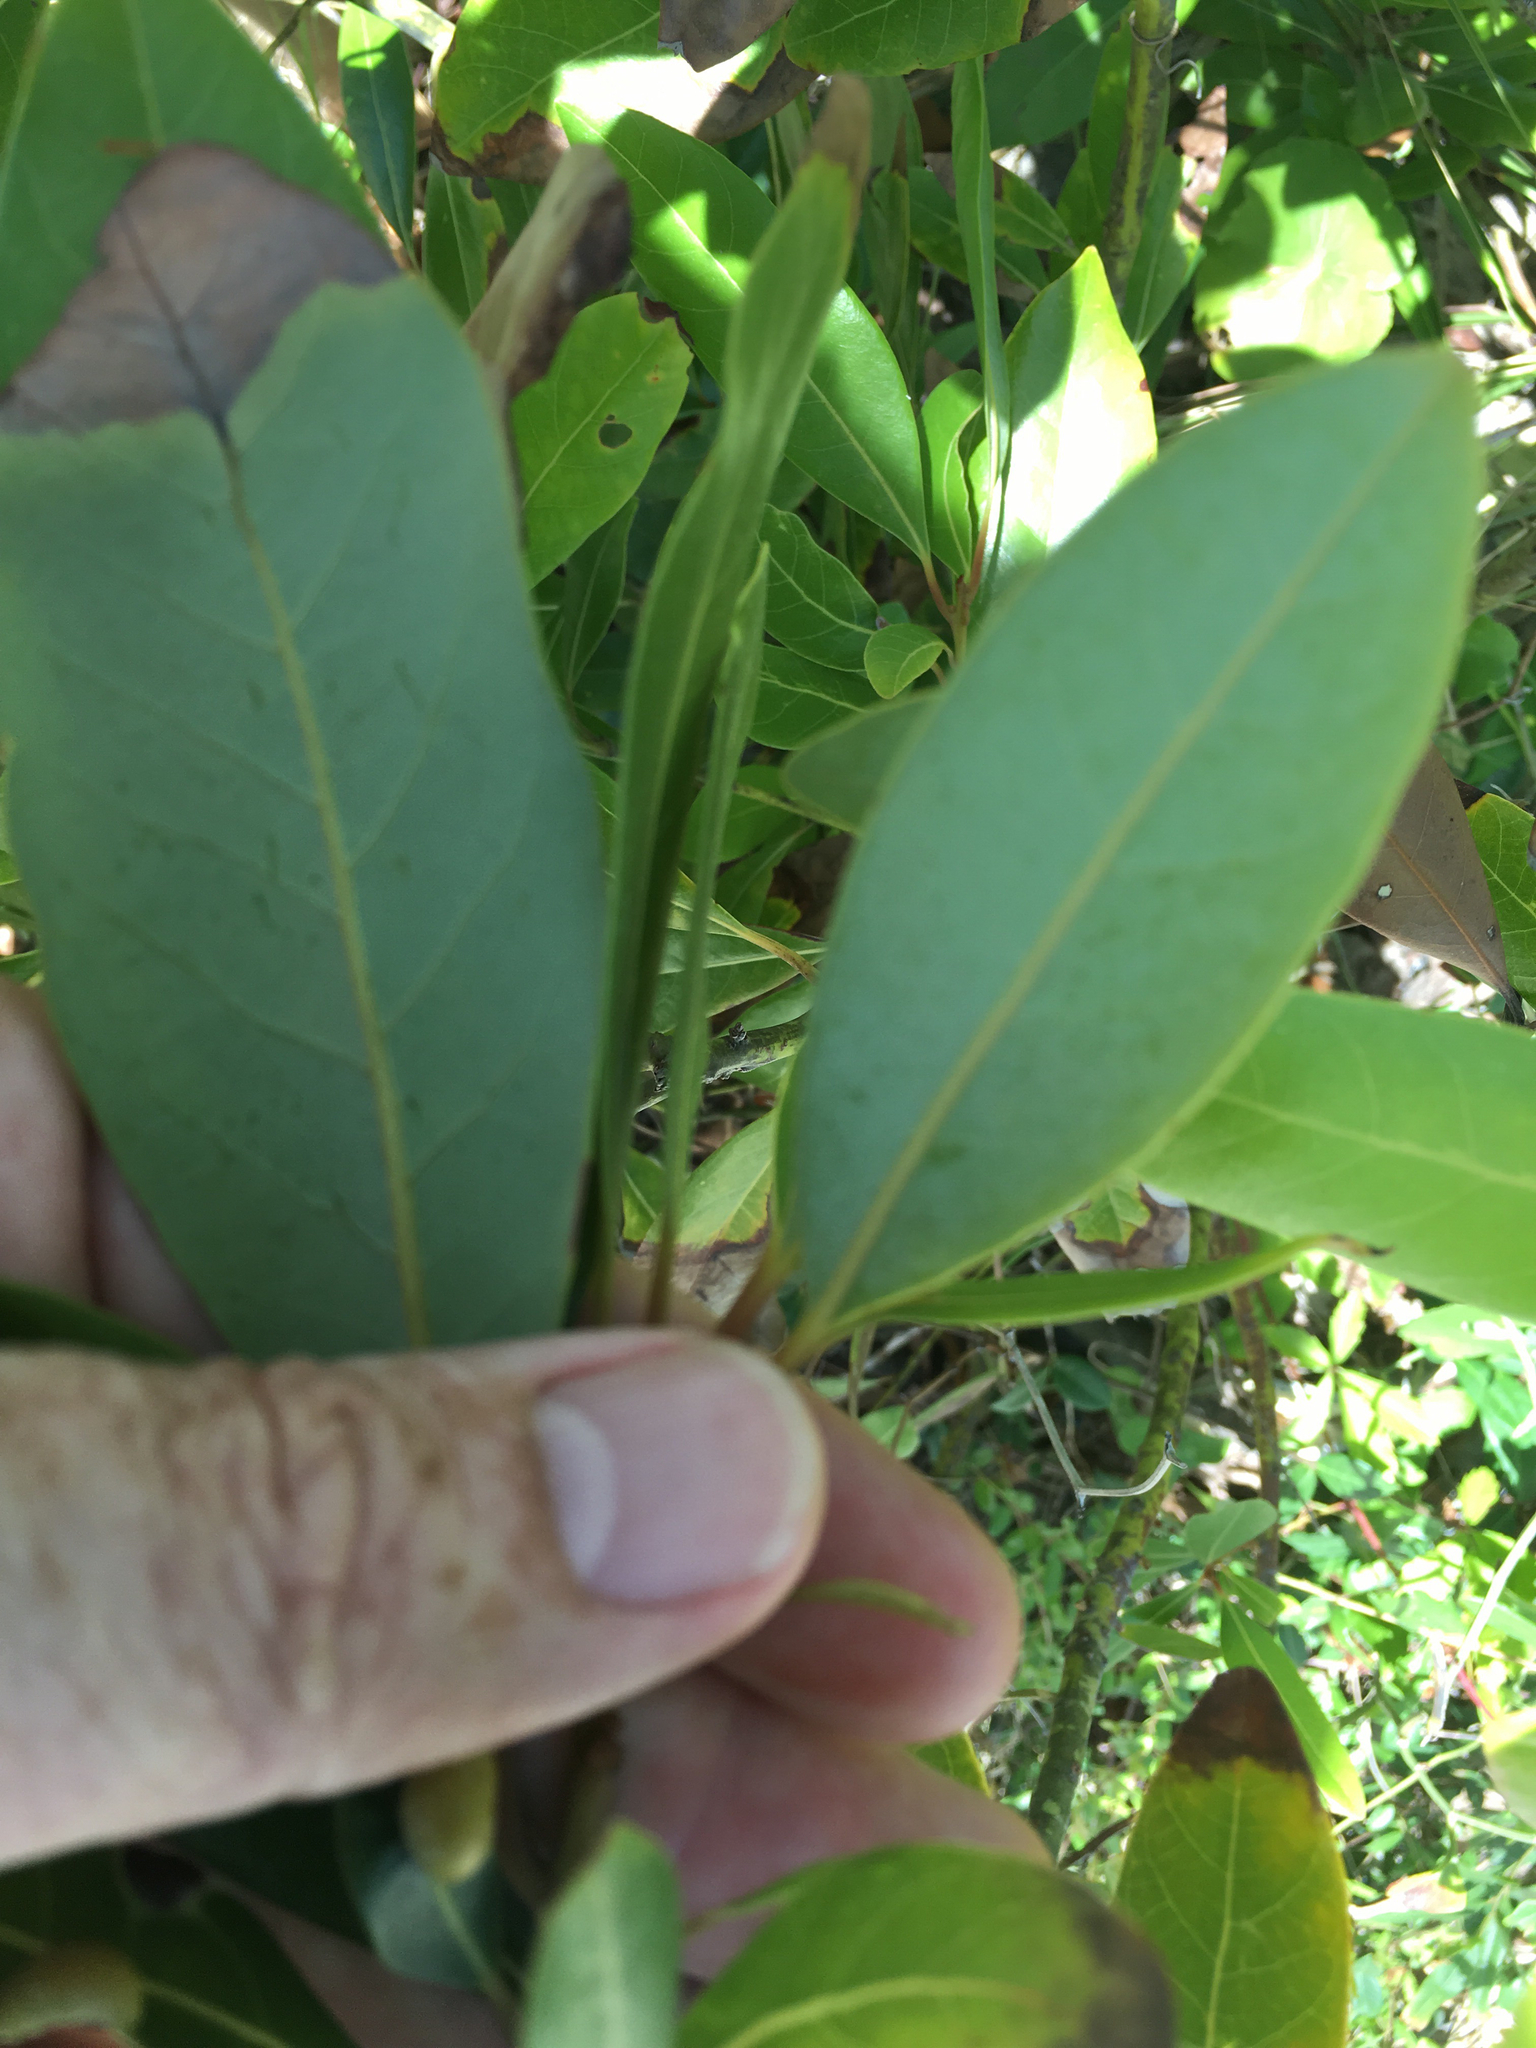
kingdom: Plantae
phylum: Tracheophyta
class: Magnoliopsida
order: Laurales
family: Lauraceae
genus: Persea
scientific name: Persea borbonia
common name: Redbay
